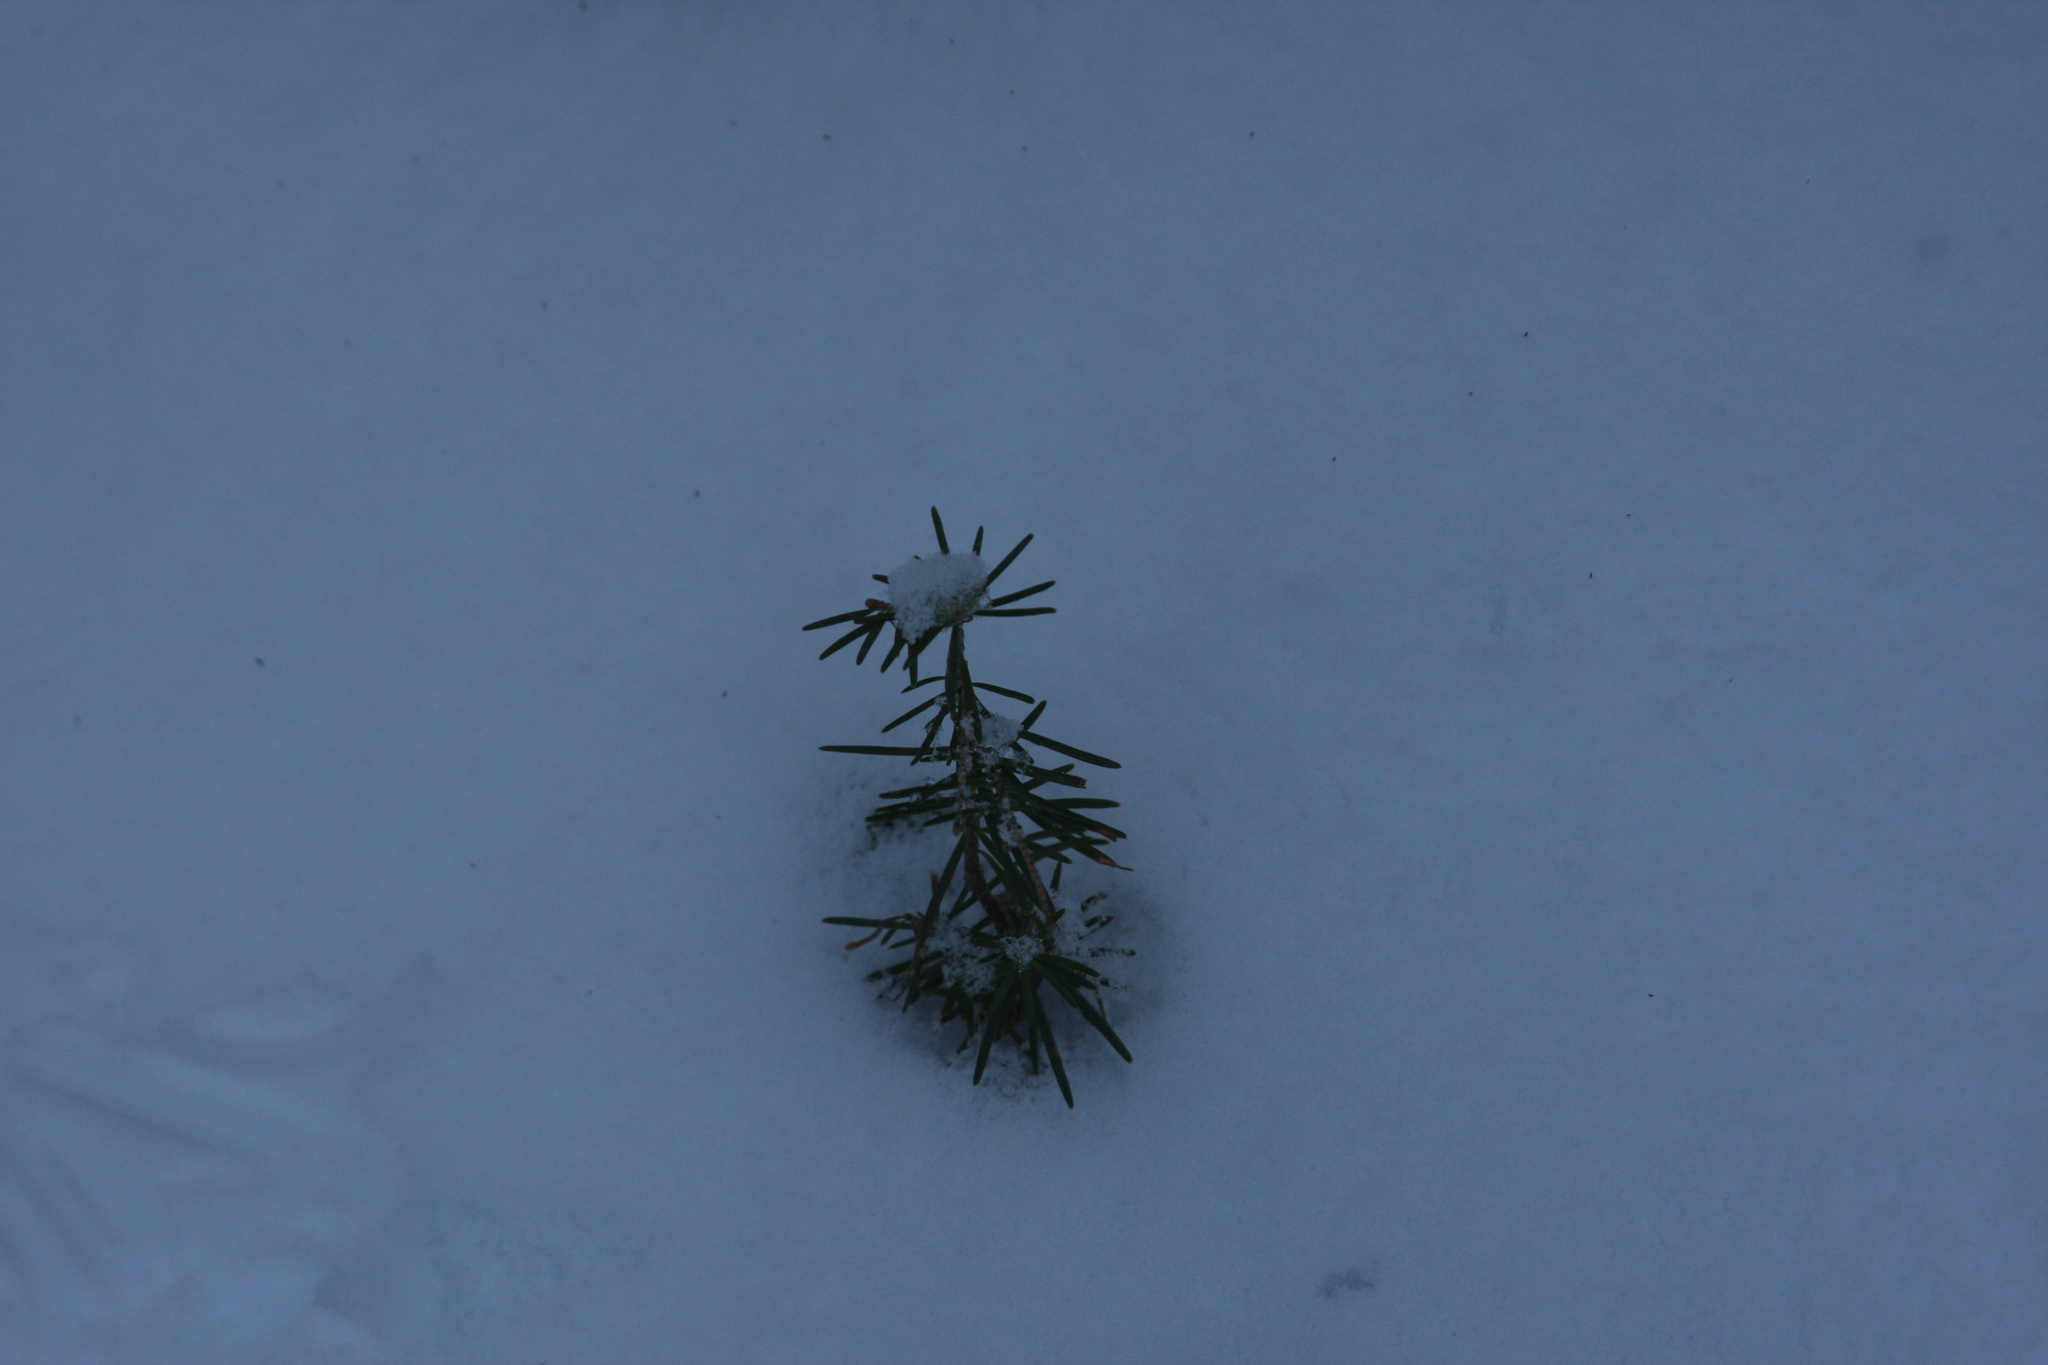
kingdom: Plantae
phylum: Tracheophyta
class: Pinopsida
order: Pinales
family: Pinaceae
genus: Tsuga
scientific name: Tsuga canadensis
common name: Eastern hemlock
